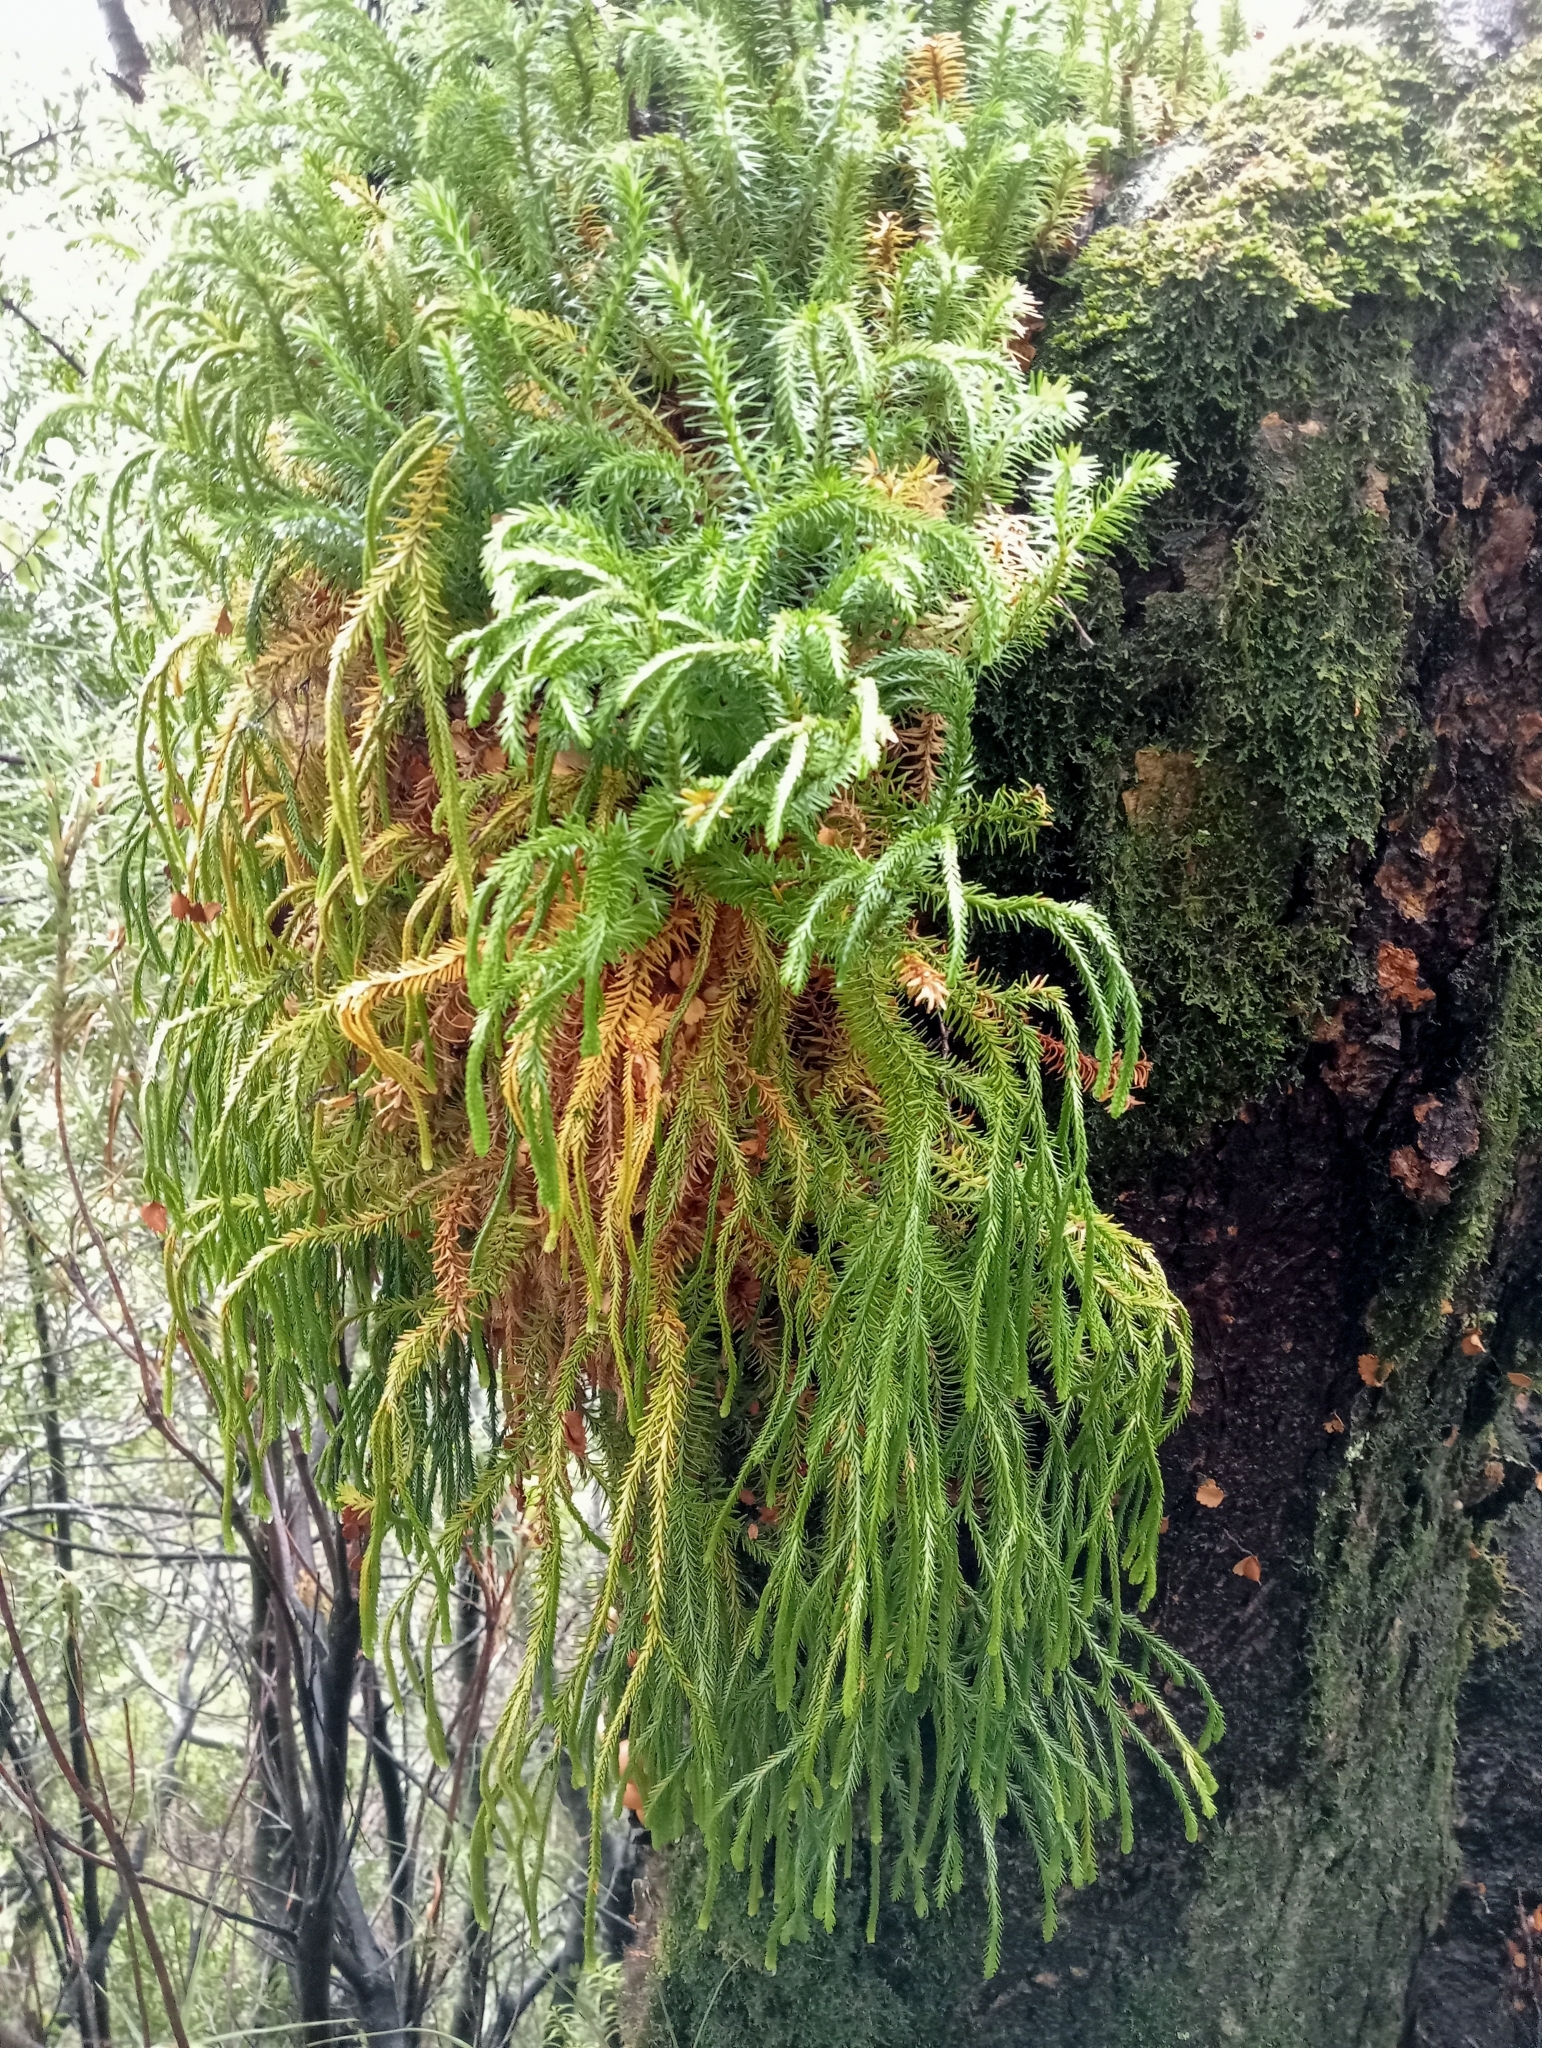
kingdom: Plantae
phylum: Tracheophyta
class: Lycopodiopsida
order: Lycopodiales
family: Lycopodiaceae
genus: Phlegmariurus
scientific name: Phlegmariurus varius
